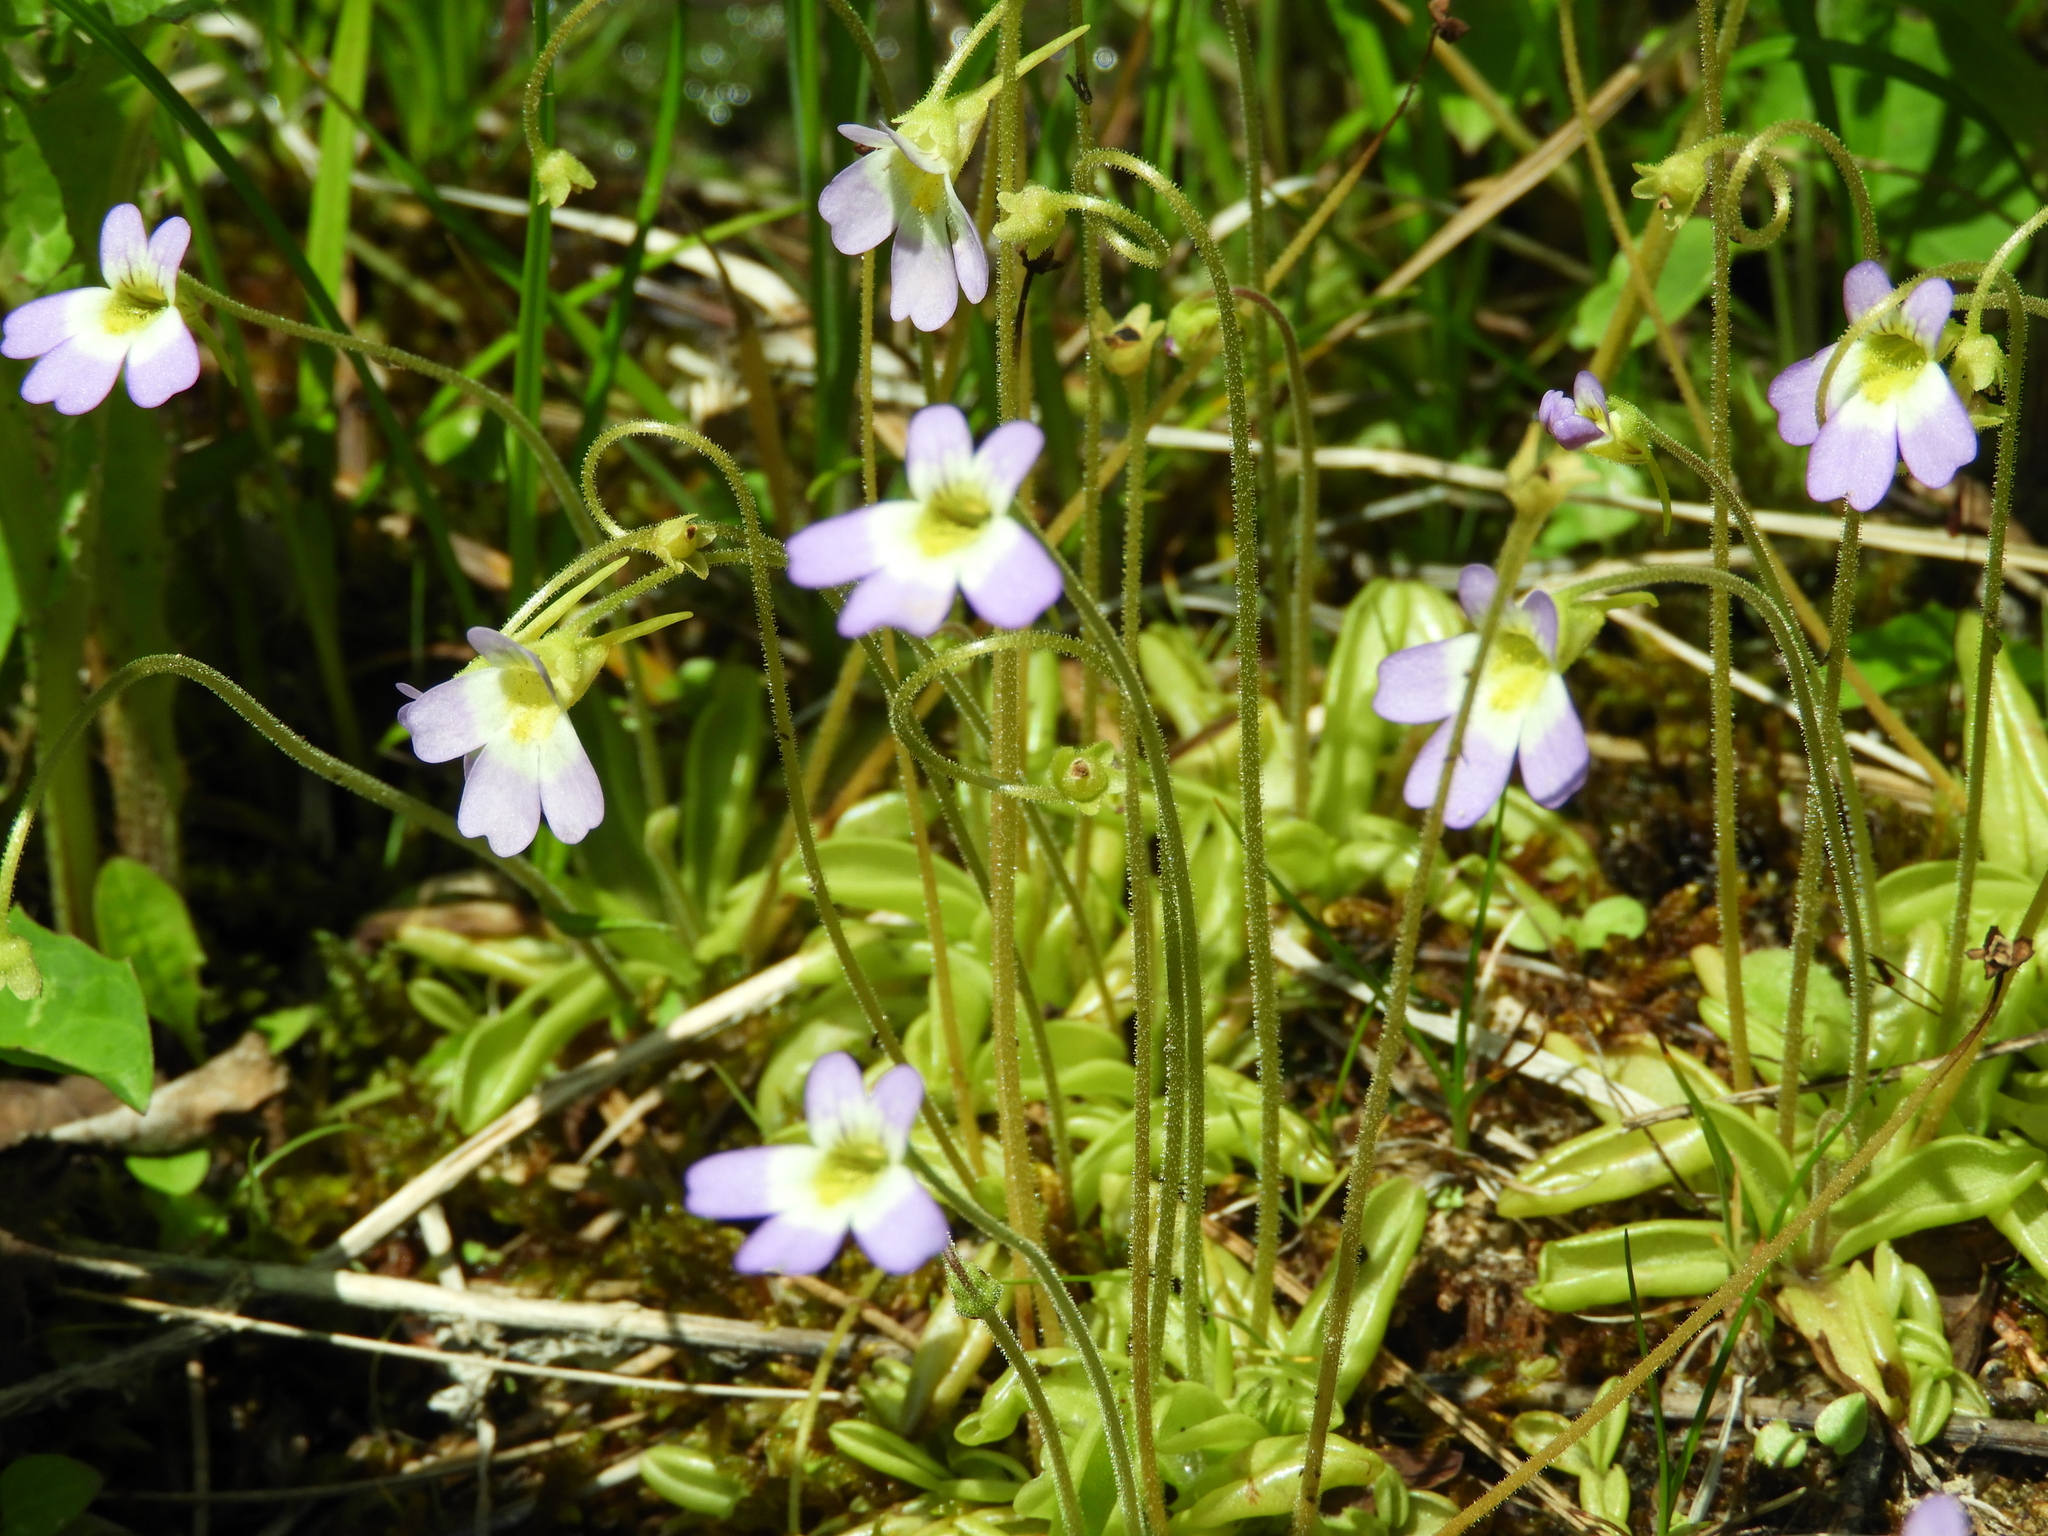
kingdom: Plantae
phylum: Tracheophyta
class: Magnoliopsida
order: Lamiales
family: Lentibulariaceae
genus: Pinguicula
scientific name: Pinguicula crystallina
